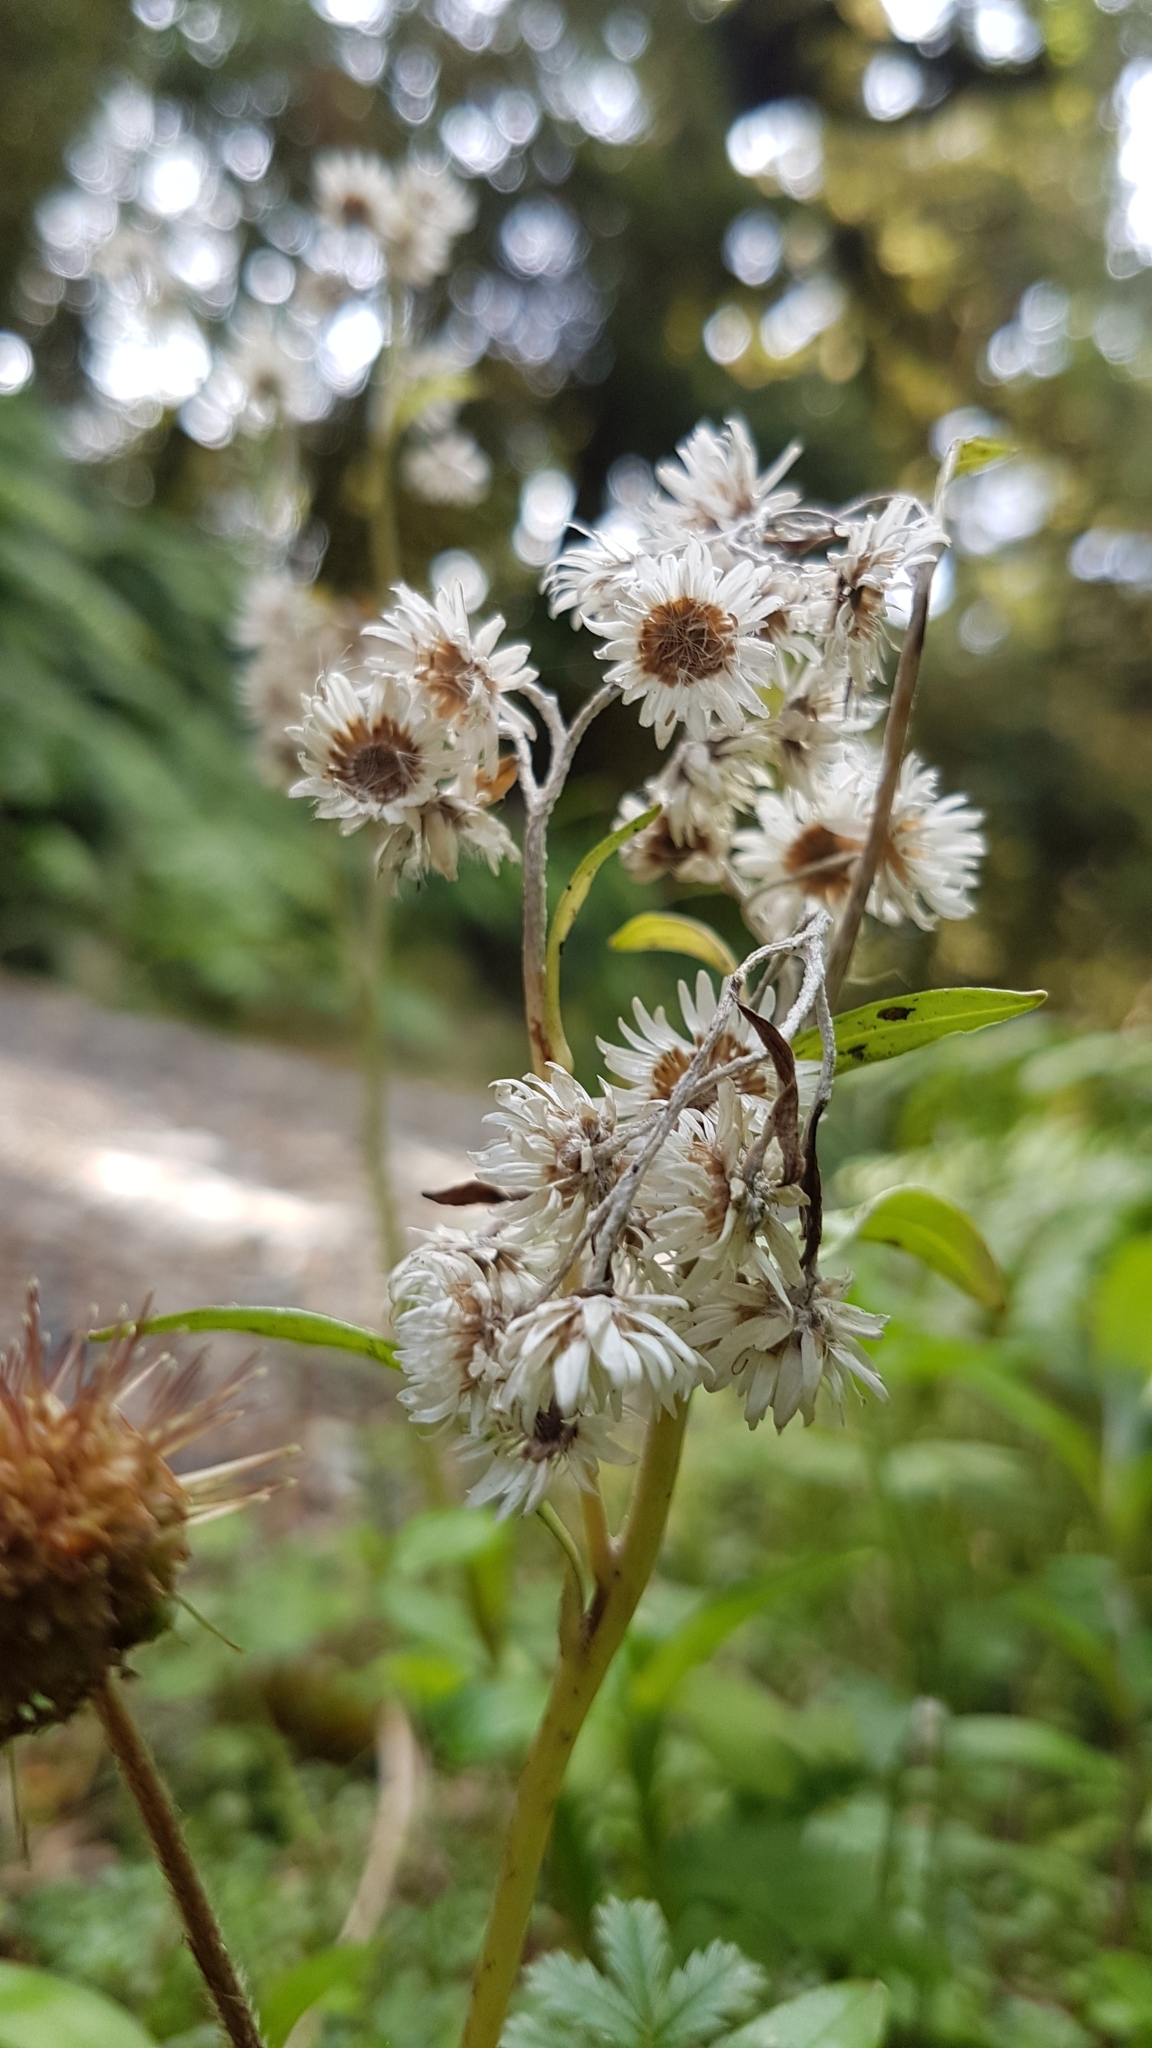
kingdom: Plantae
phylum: Tracheophyta
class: Magnoliopsida
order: Asterales
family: Asteraceae
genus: Anaphalioides
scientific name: Anaphalioides trinervis
